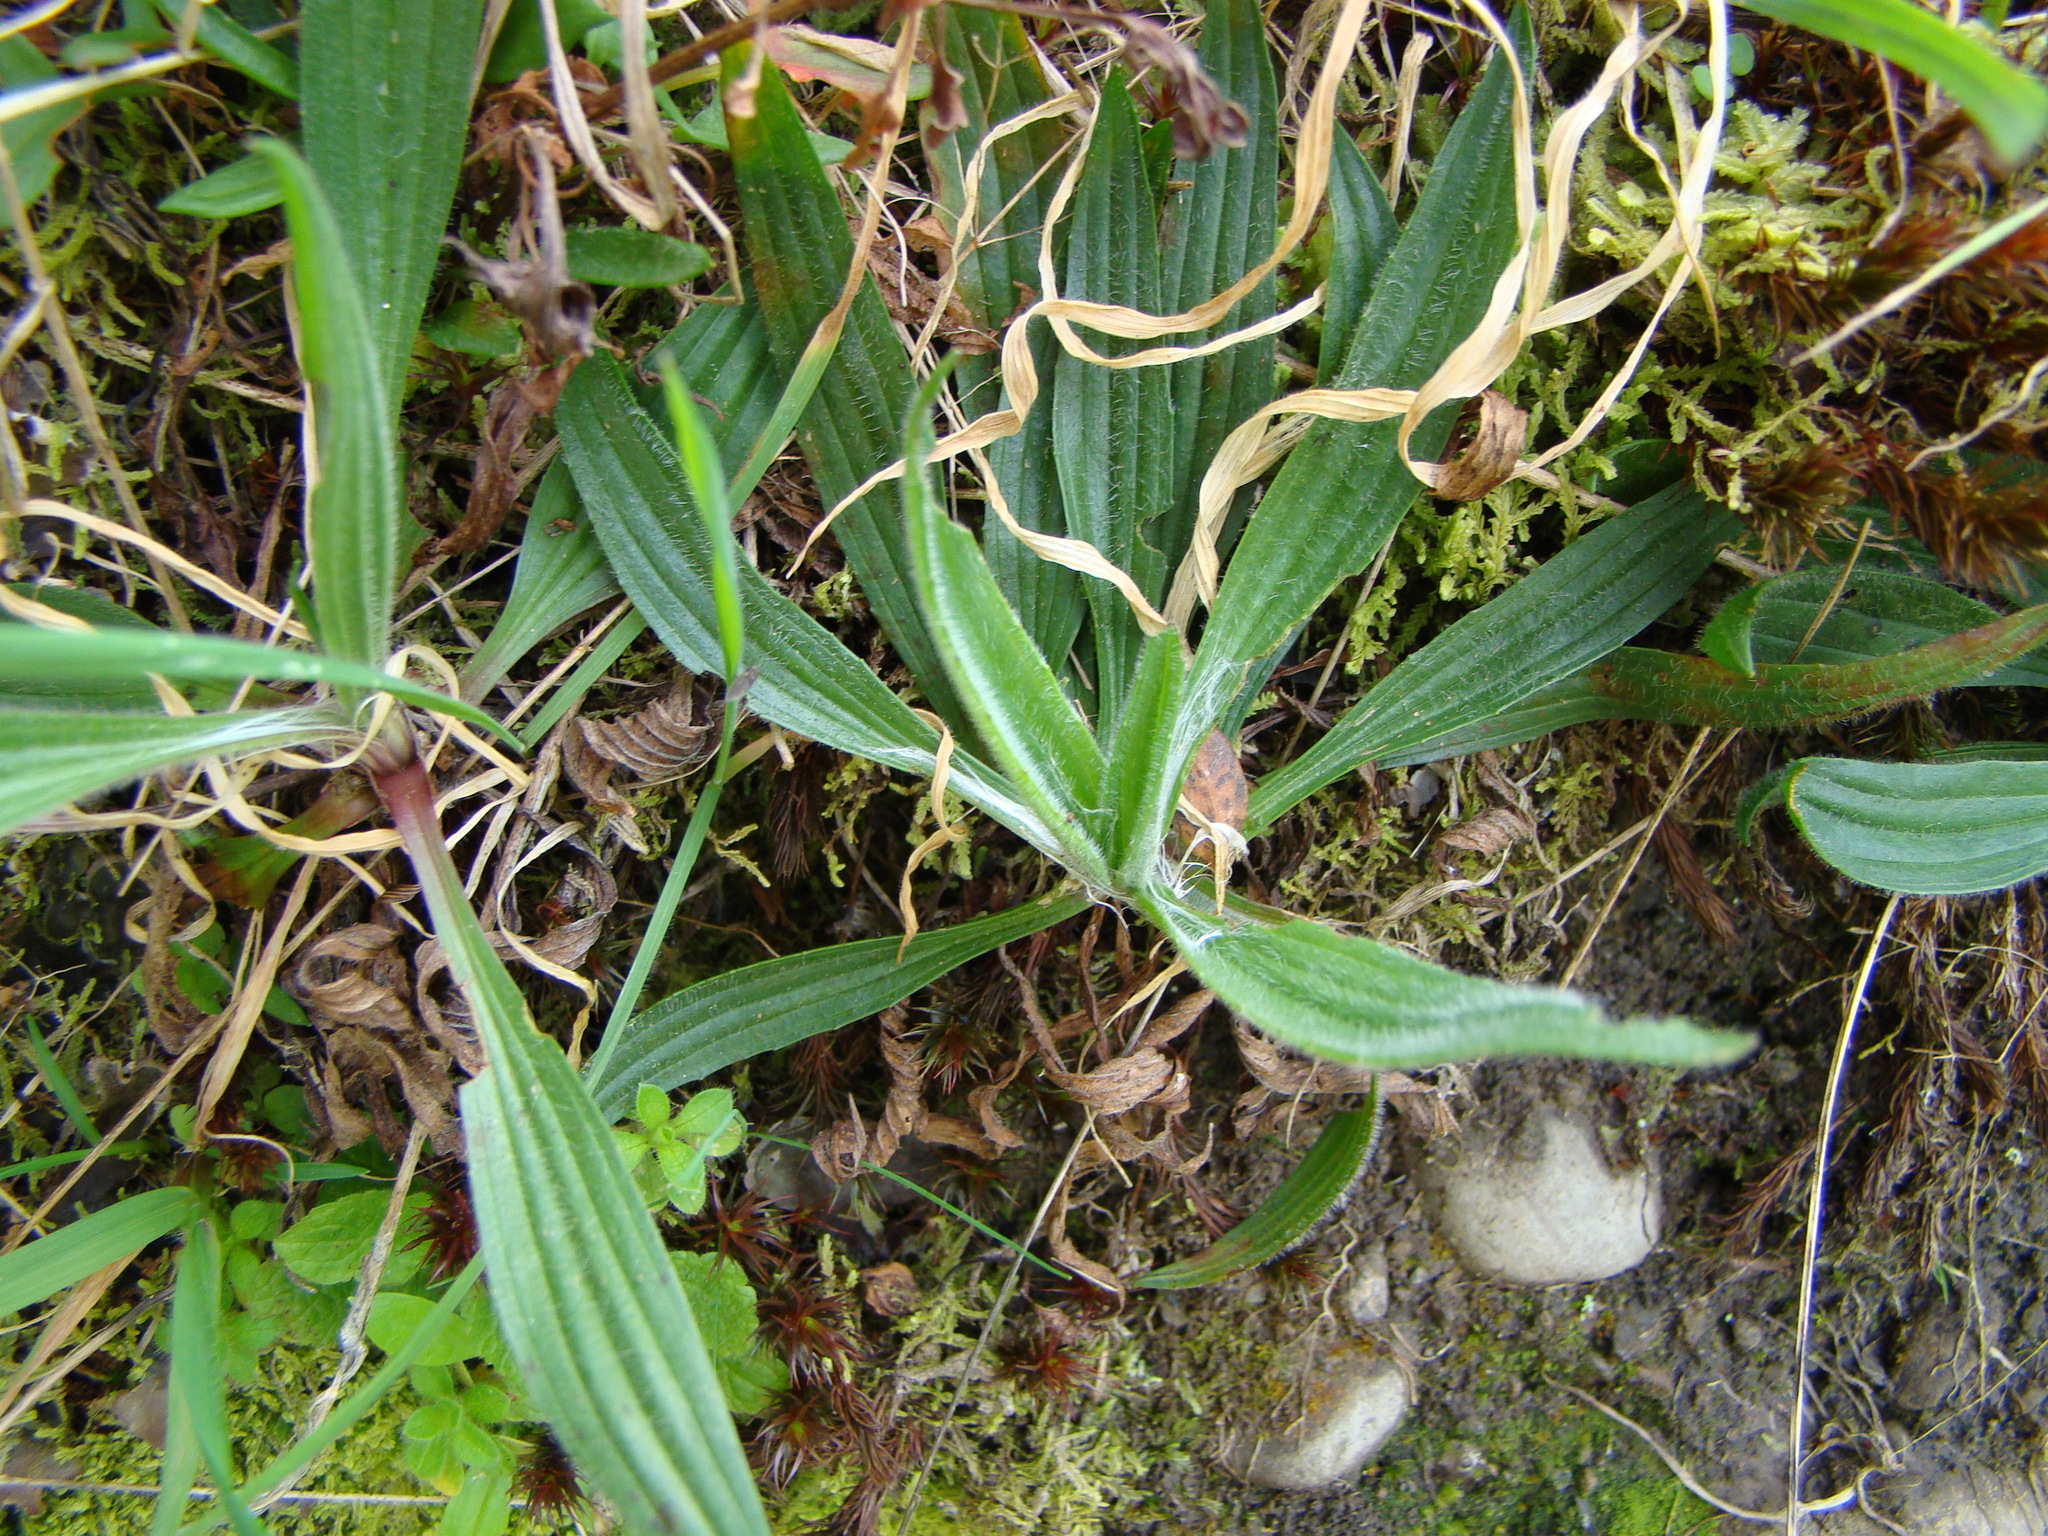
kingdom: Plantae
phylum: Tracheophyta
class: Magnoliopsida
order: Lamiales
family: Plantaginaceae
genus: Plantago
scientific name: Plantago lanceolata
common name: Ribwort plantain
